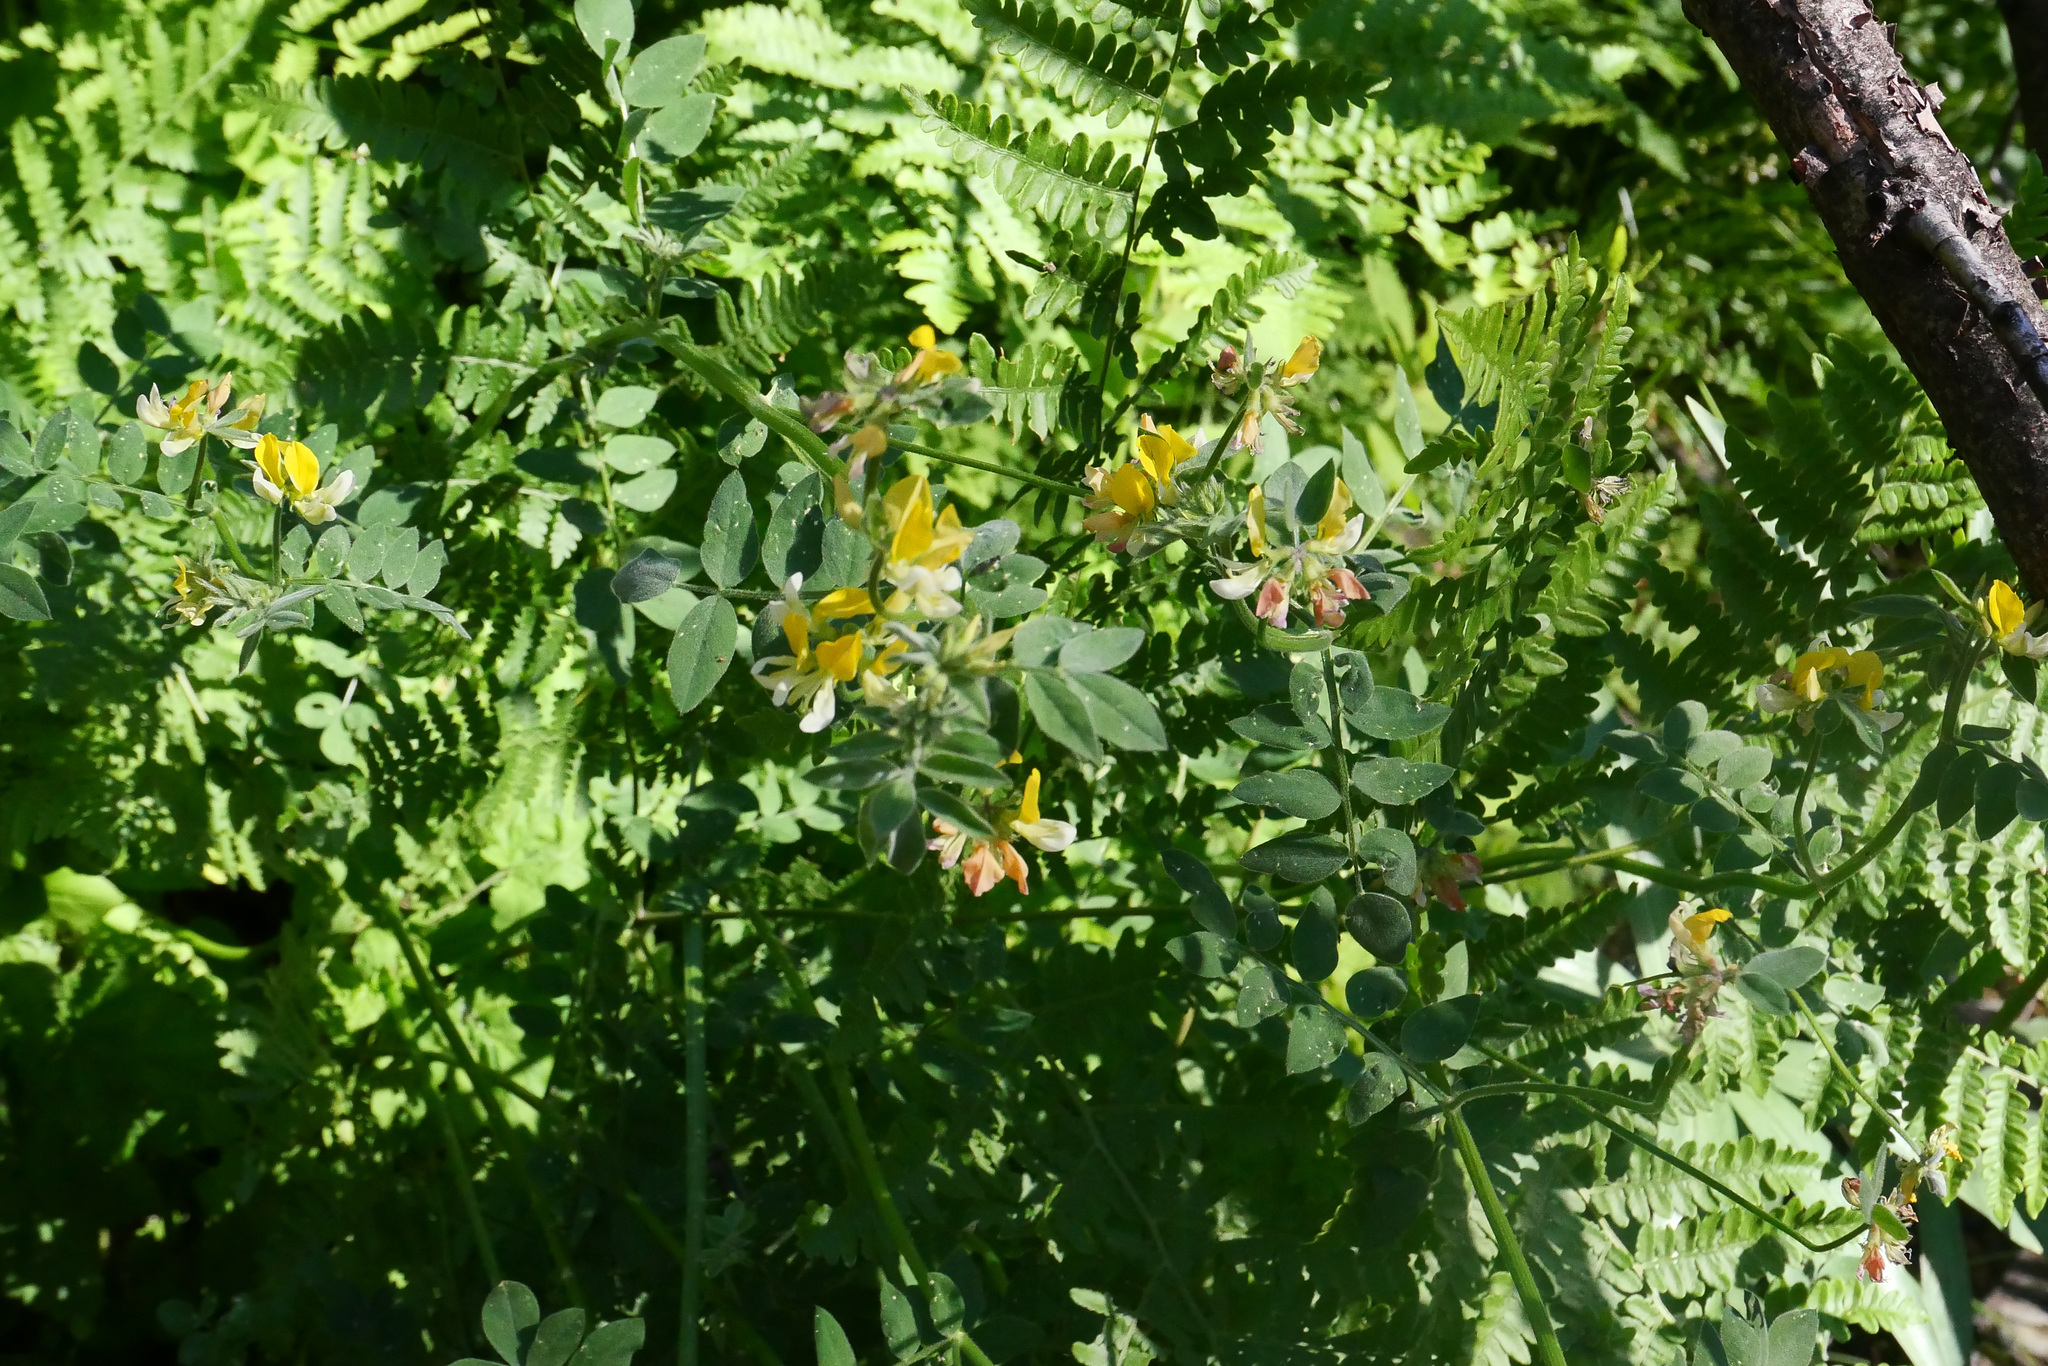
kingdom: Plantae
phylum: Tracheophyta
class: Magnoliopsida
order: Fabales
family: Fabaceae
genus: Hosackia
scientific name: Hosackia oblongifolia
